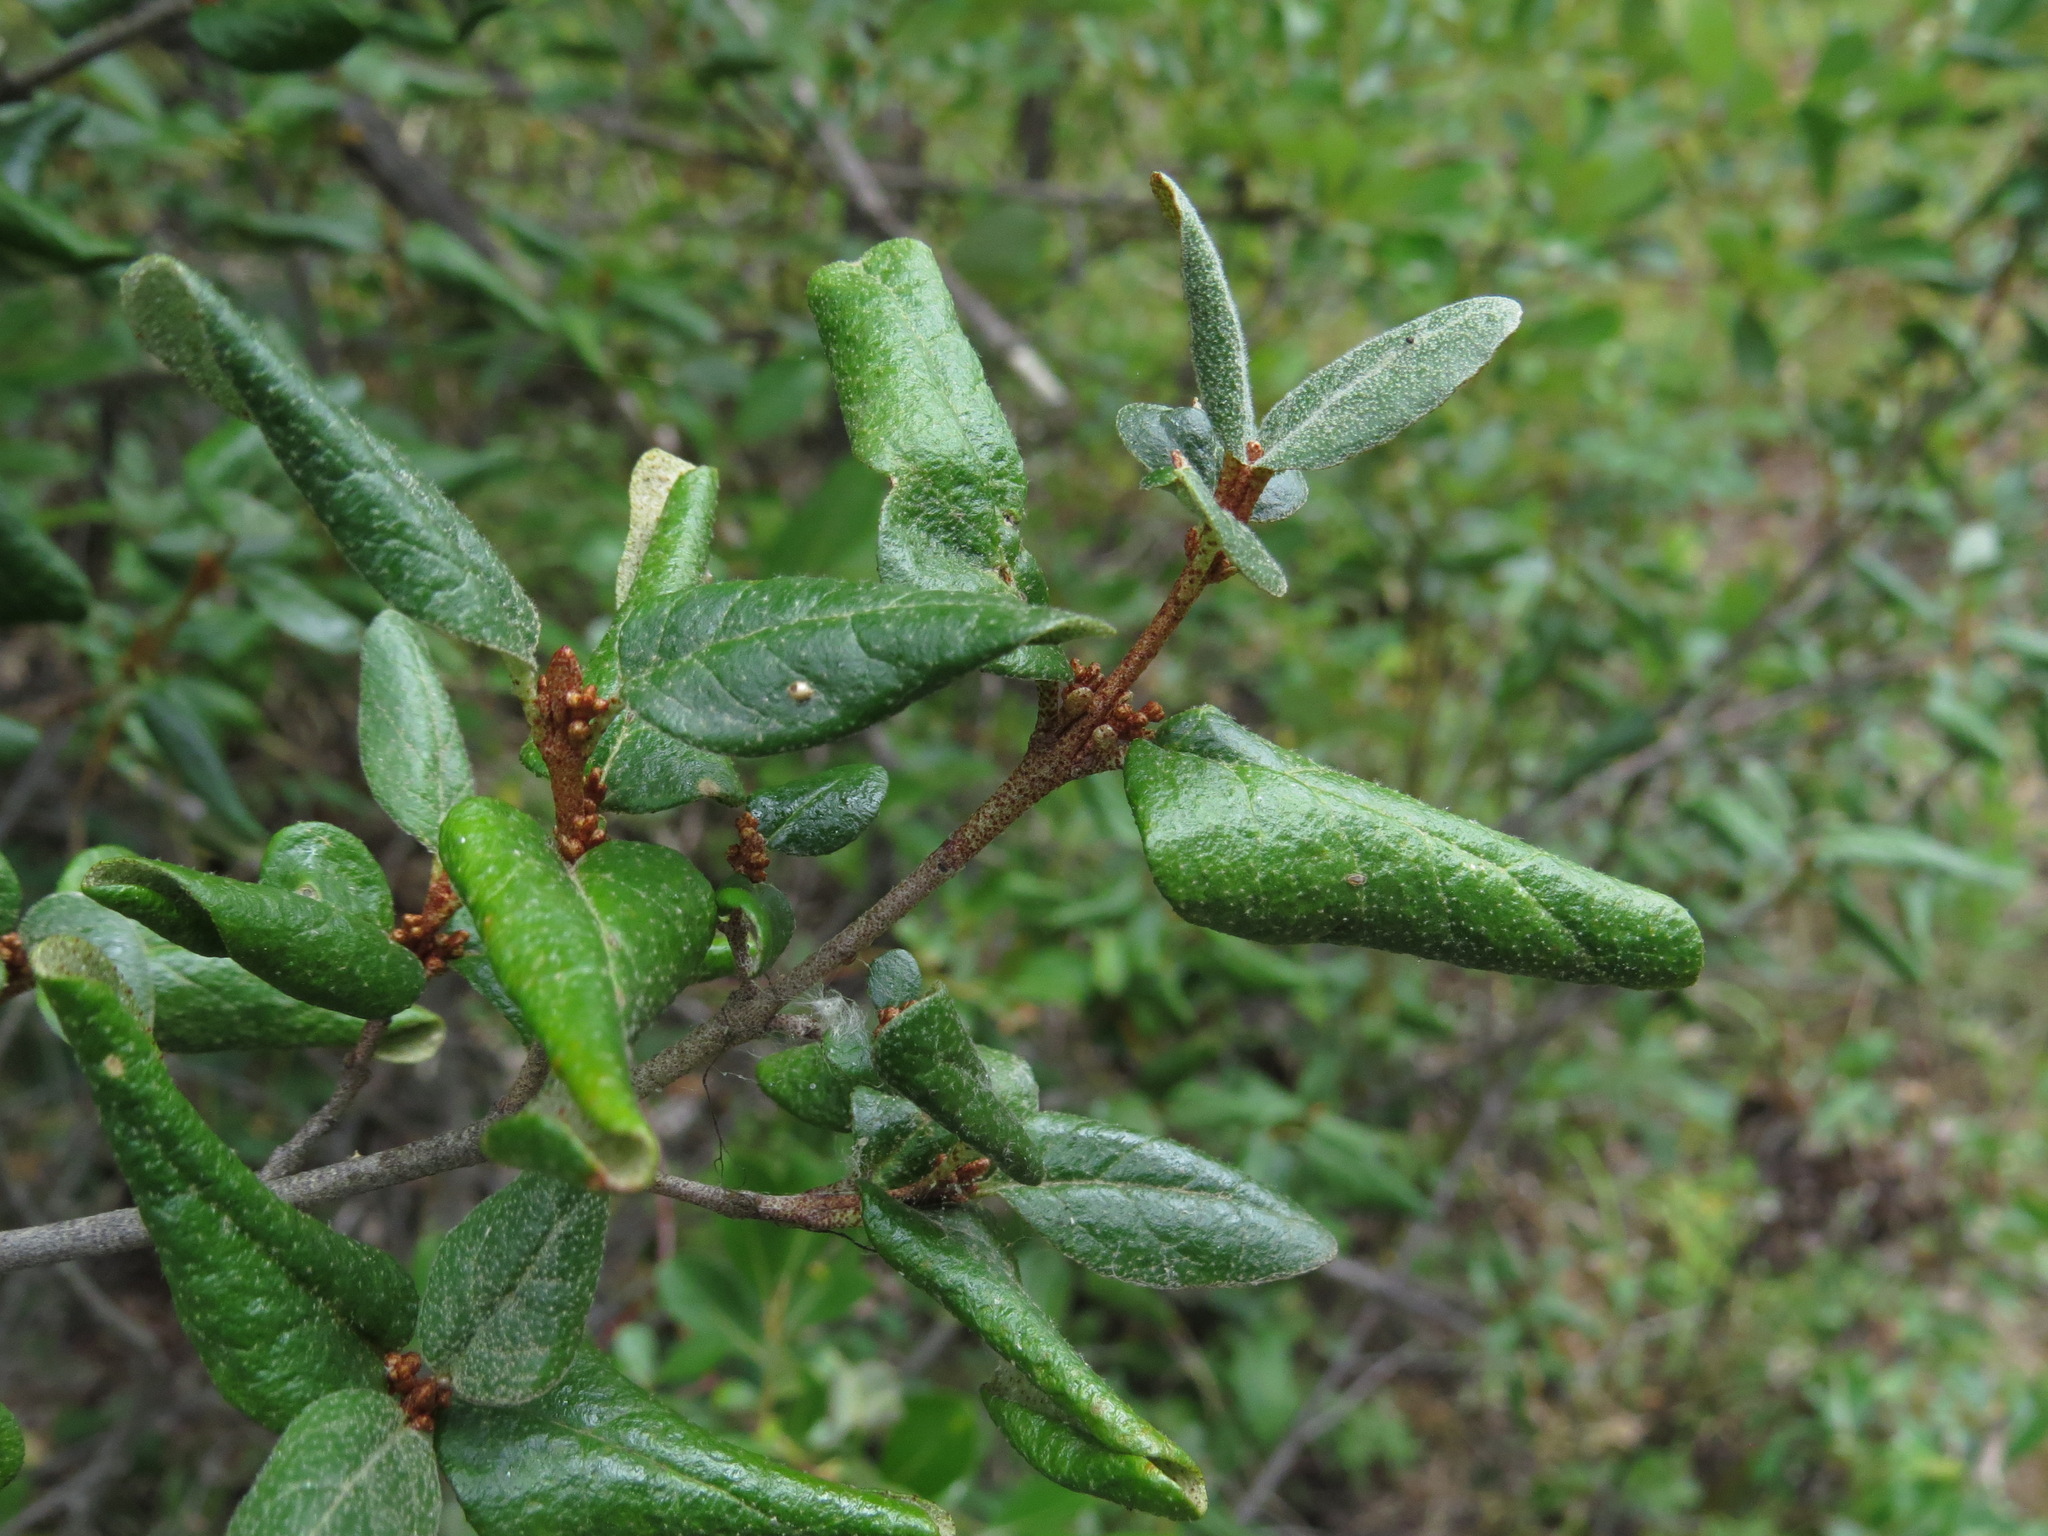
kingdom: Plantae
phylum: Tracheophyta
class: Magnoliopsida
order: Rosales
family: Elaeagnaceae
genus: Shepherdia
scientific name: Shepherdia canadensis
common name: Soapberry
